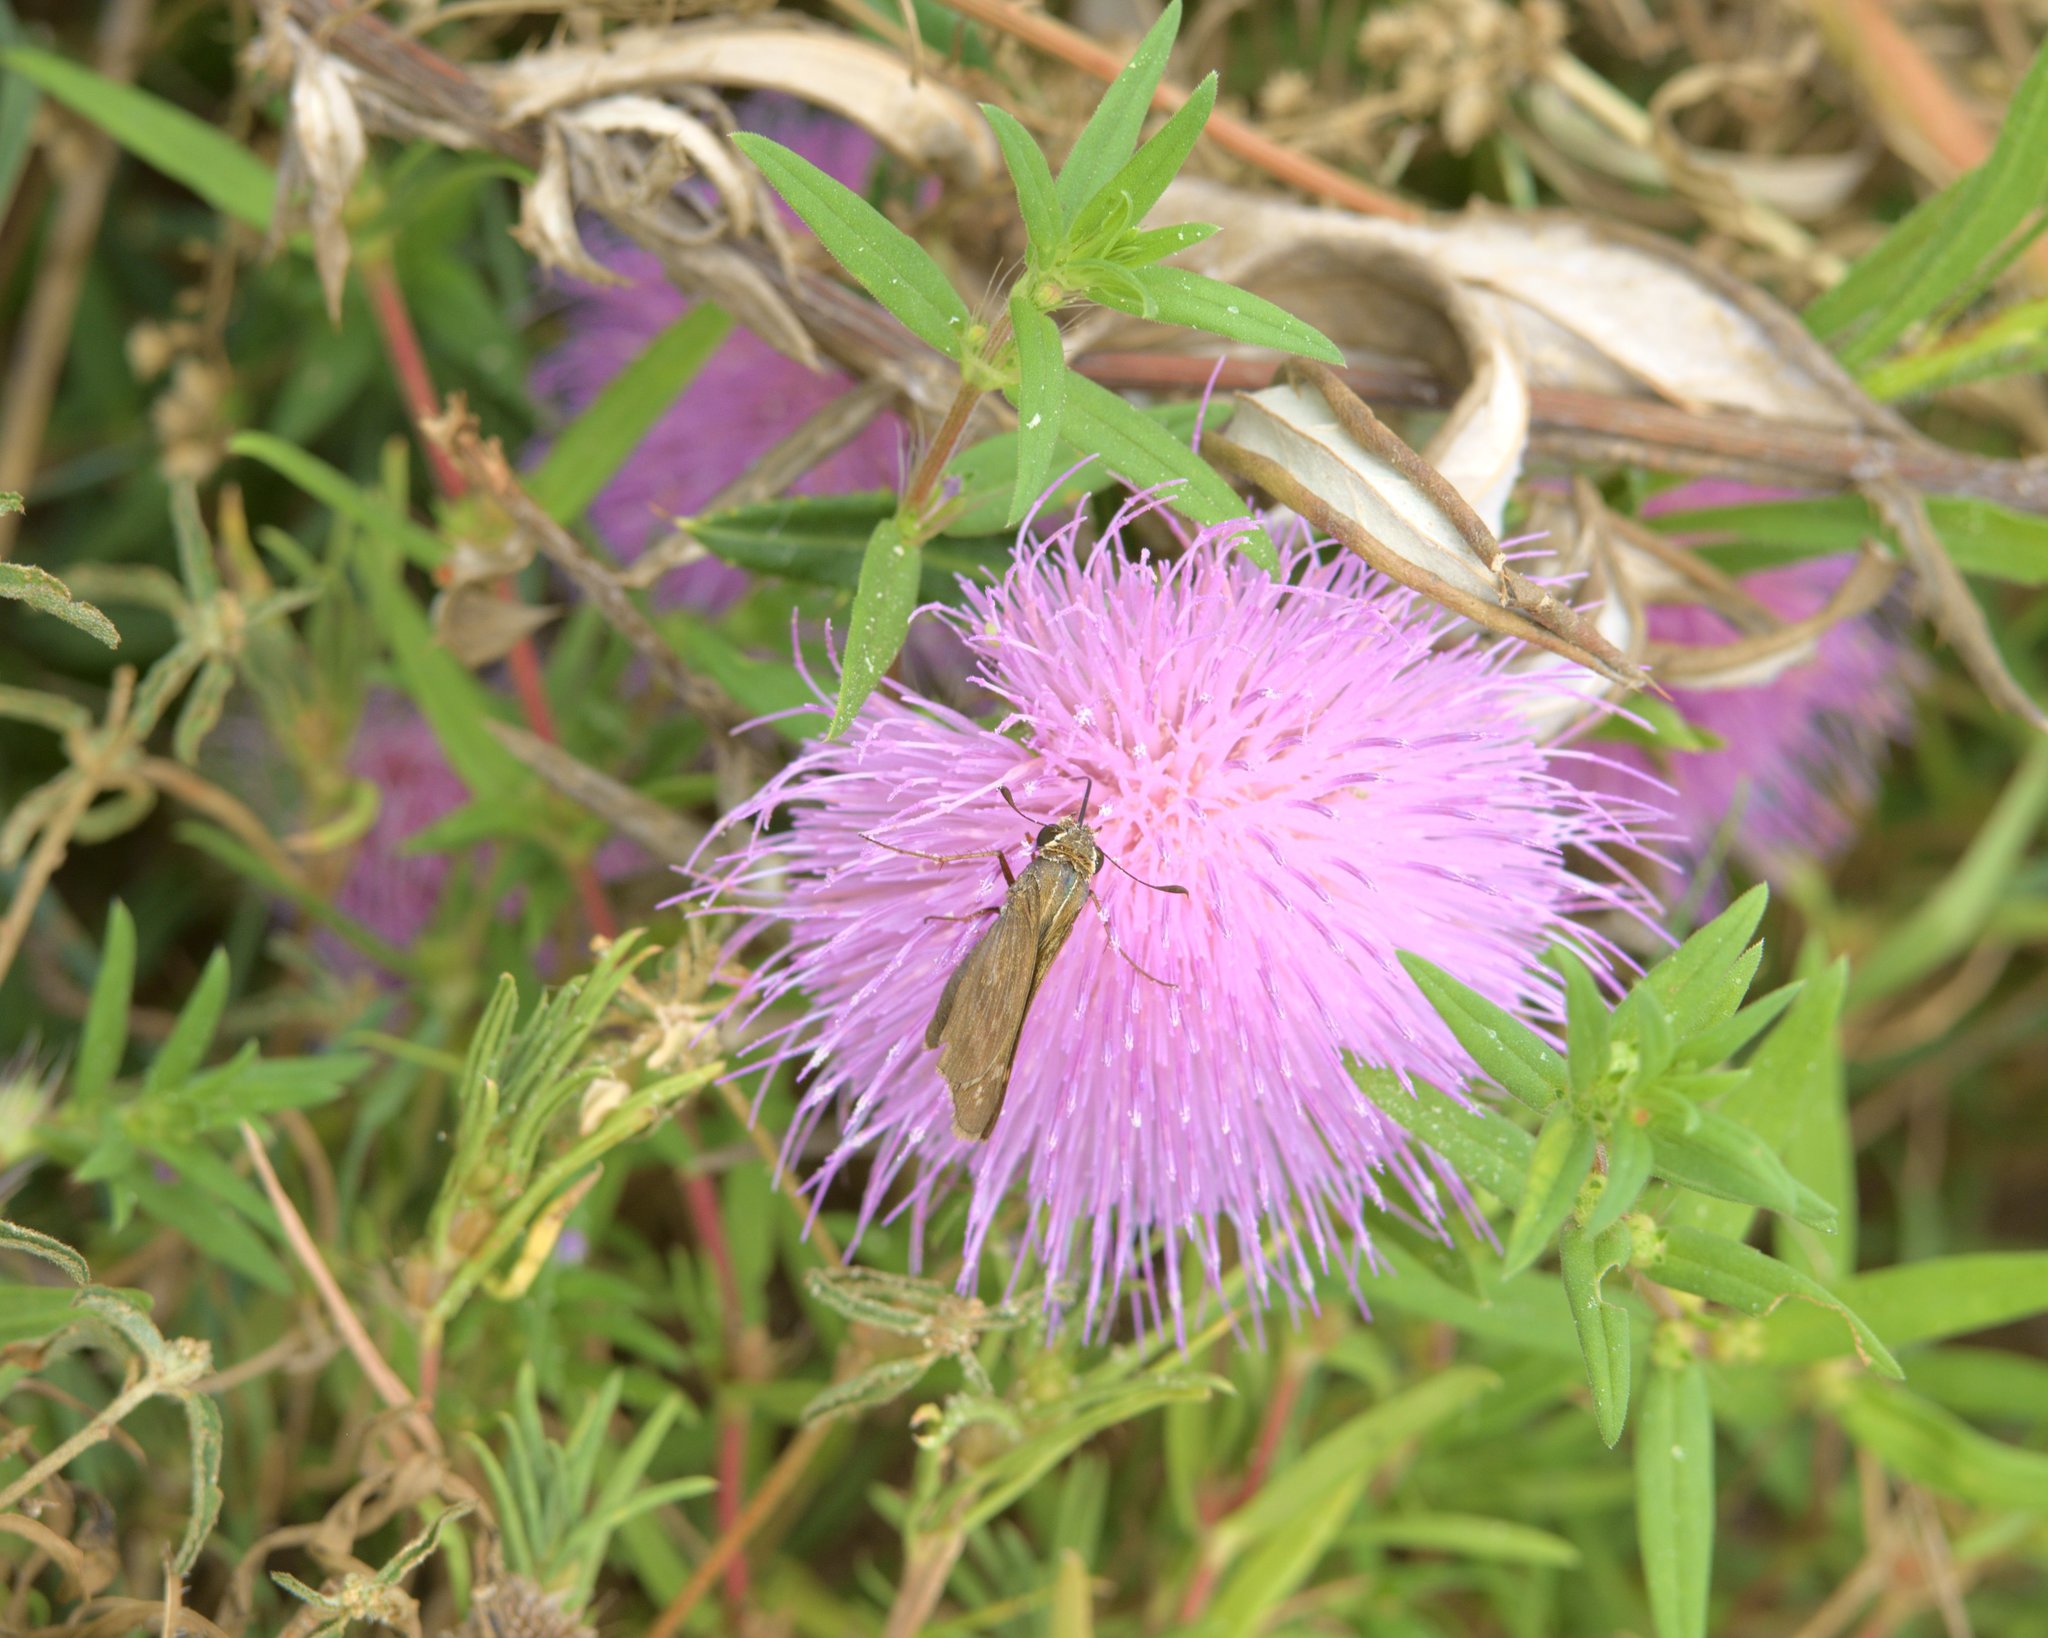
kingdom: Plantae
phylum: Tracheophyta
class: Magnoliopsida
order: Asterales
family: Asteraceae
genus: Cirsium
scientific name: Cirsium altissimum
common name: Roadside thistle
